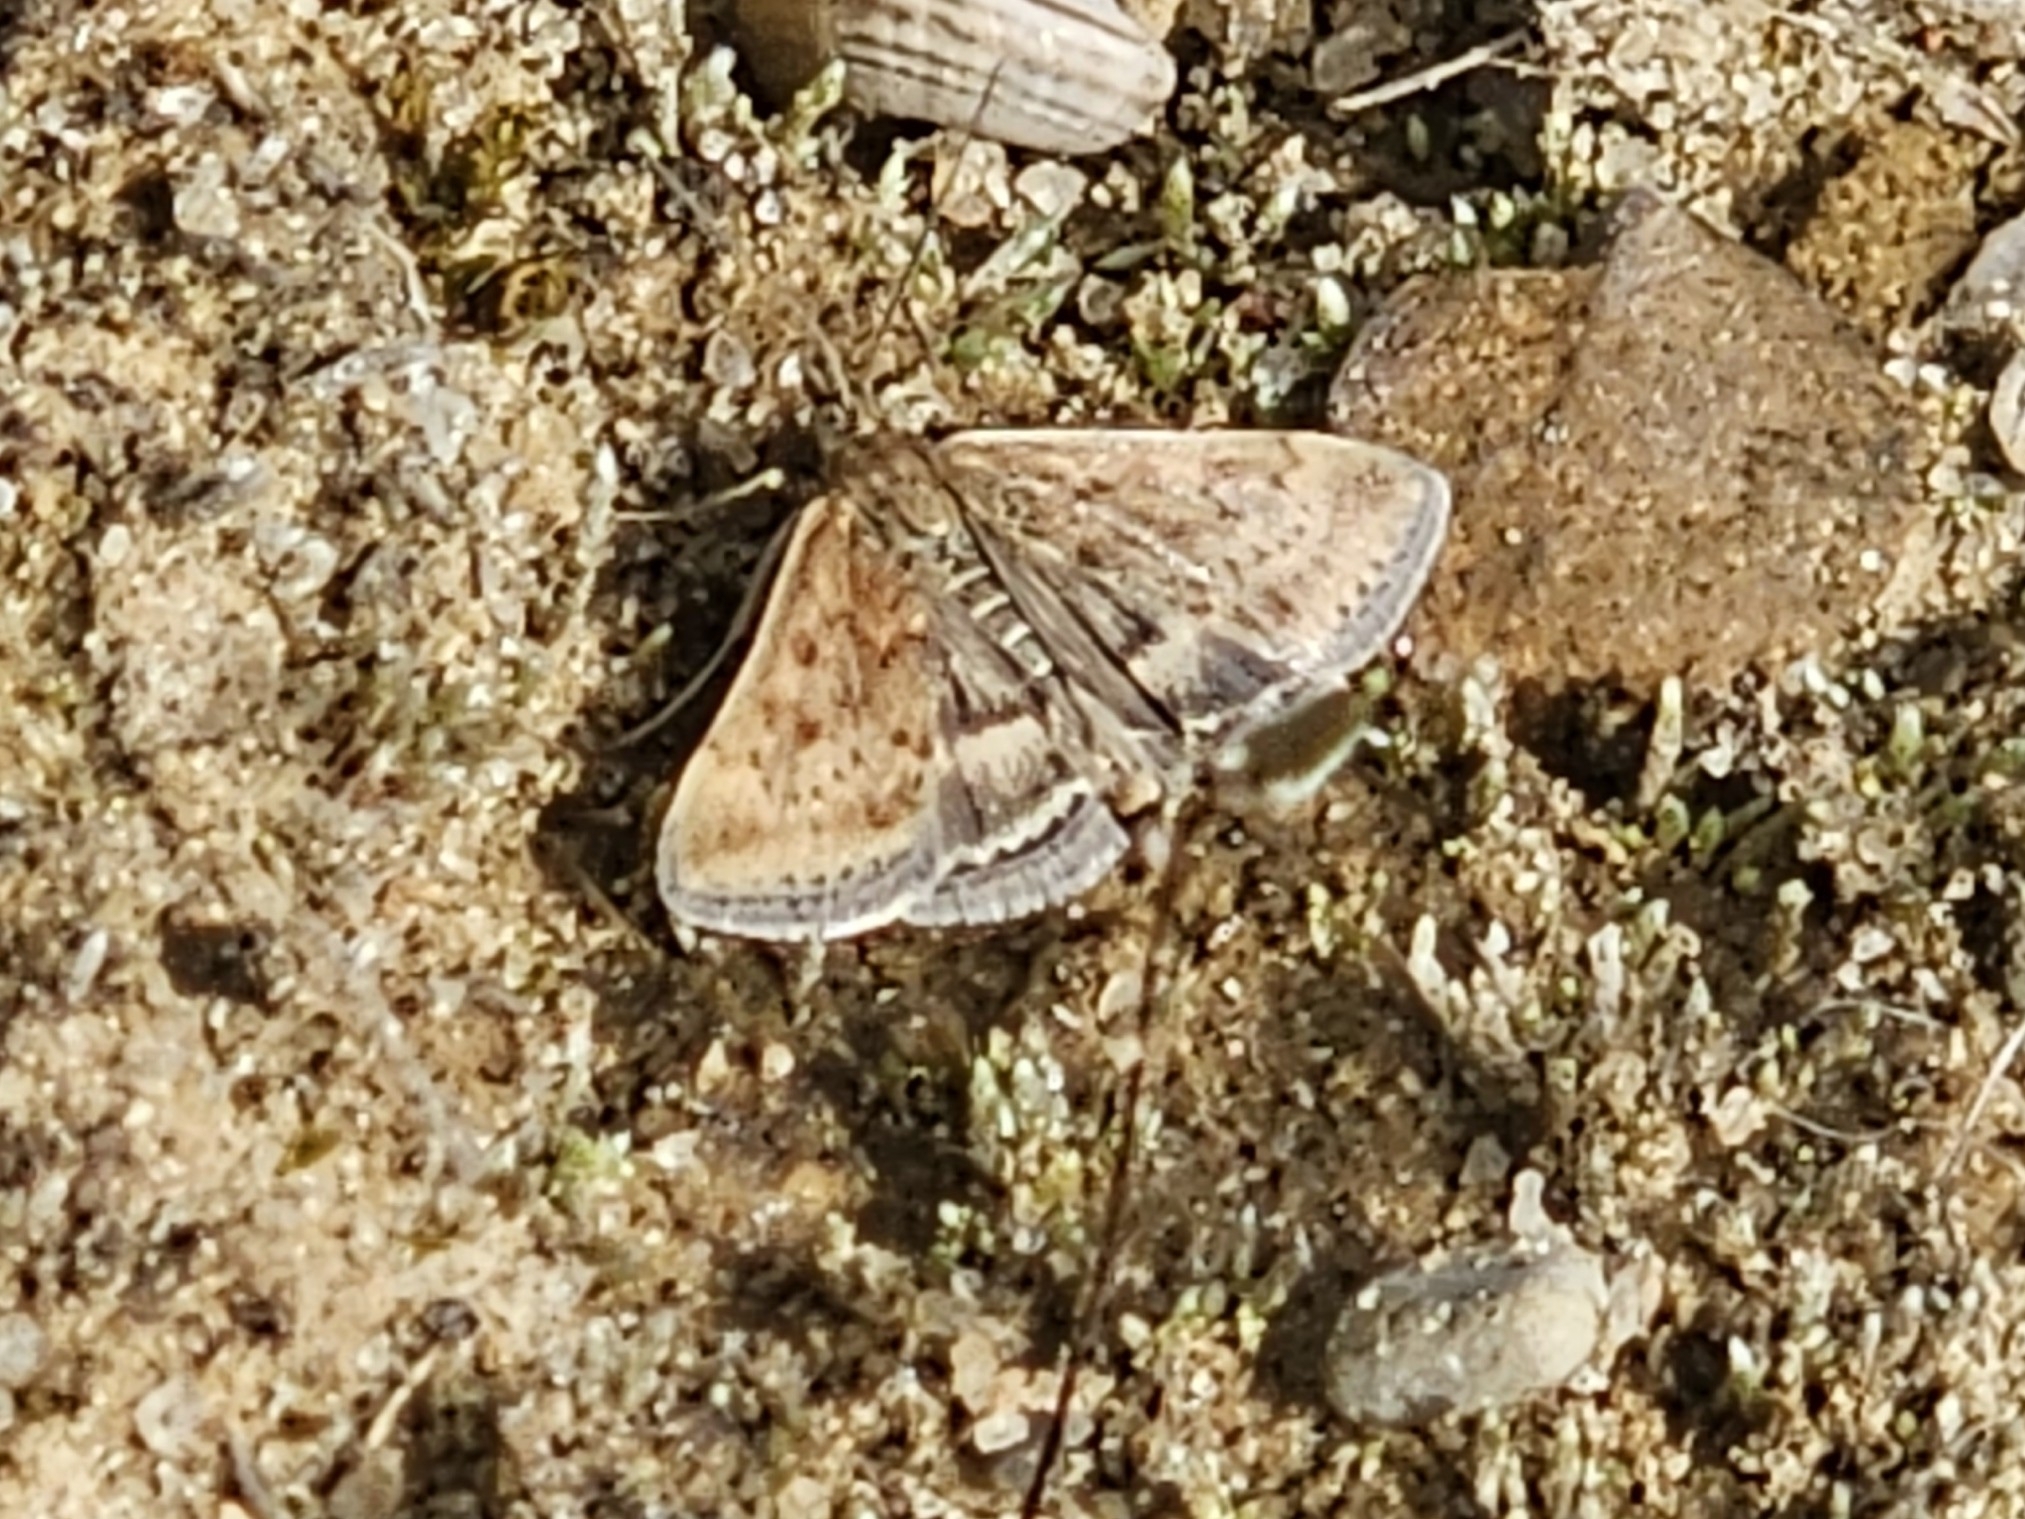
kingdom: Animalia
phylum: Arthropoda
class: Insecta
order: Lepidoptera
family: Crambidae
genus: Pyrausta
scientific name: Pyrausta despicata
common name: Straw-barred pearl
